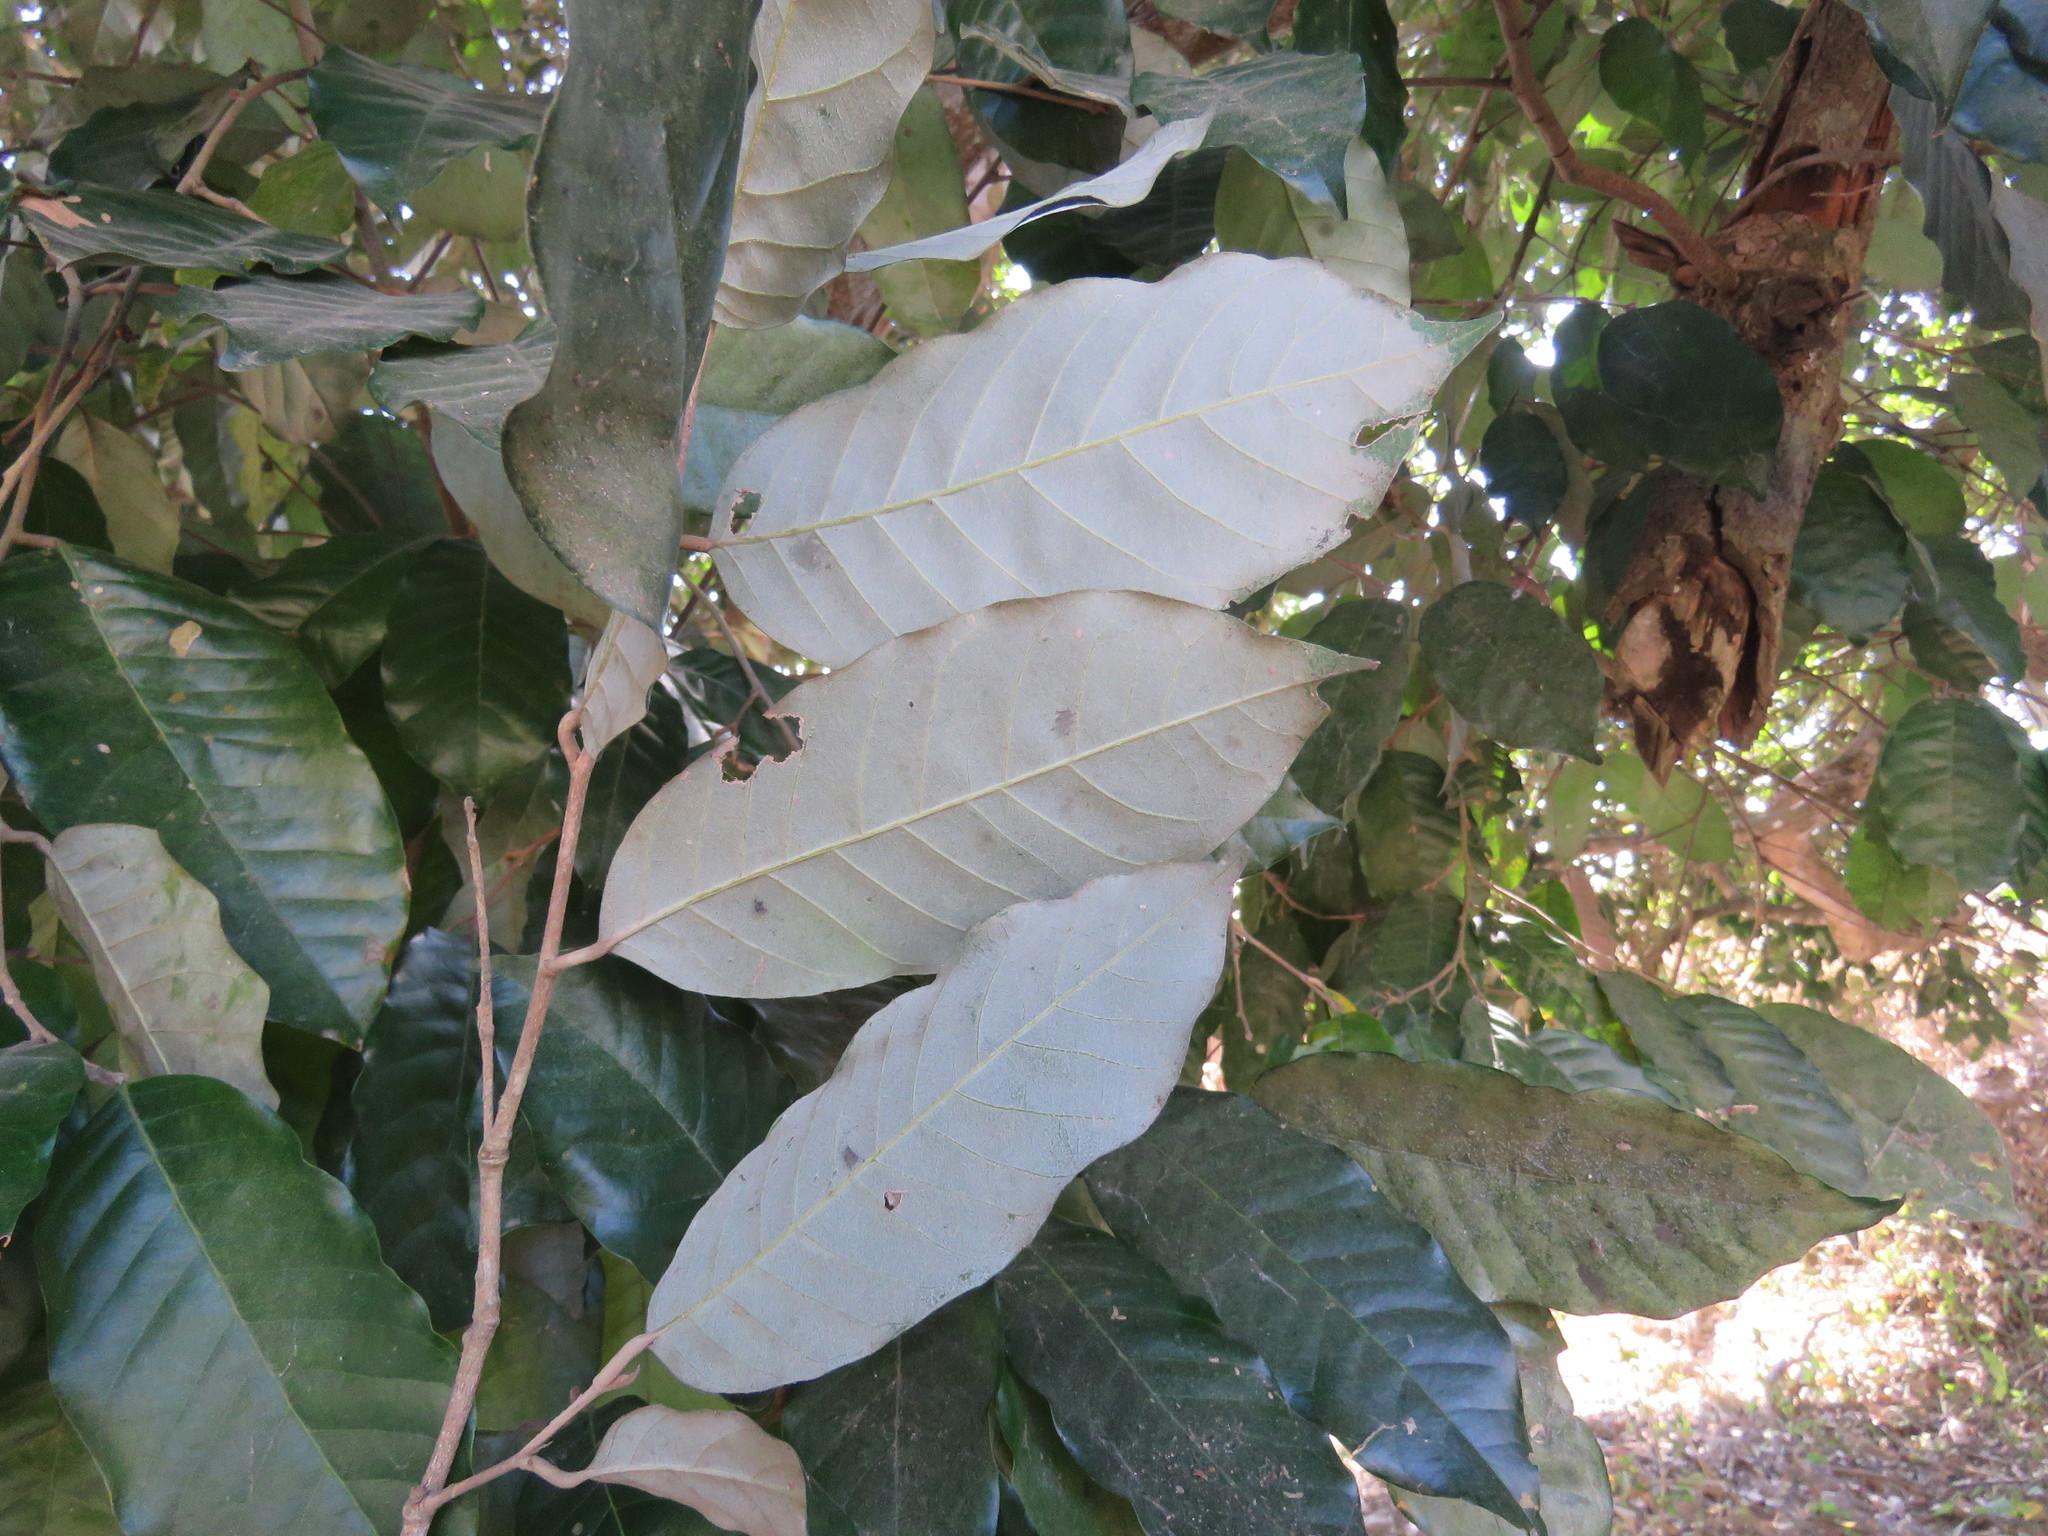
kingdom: Plantae
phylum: Tracheophyta
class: Magnoliopsida
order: Malpighiales
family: Chrysobalanaceae
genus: Couepia
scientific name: Couepia polyandra
